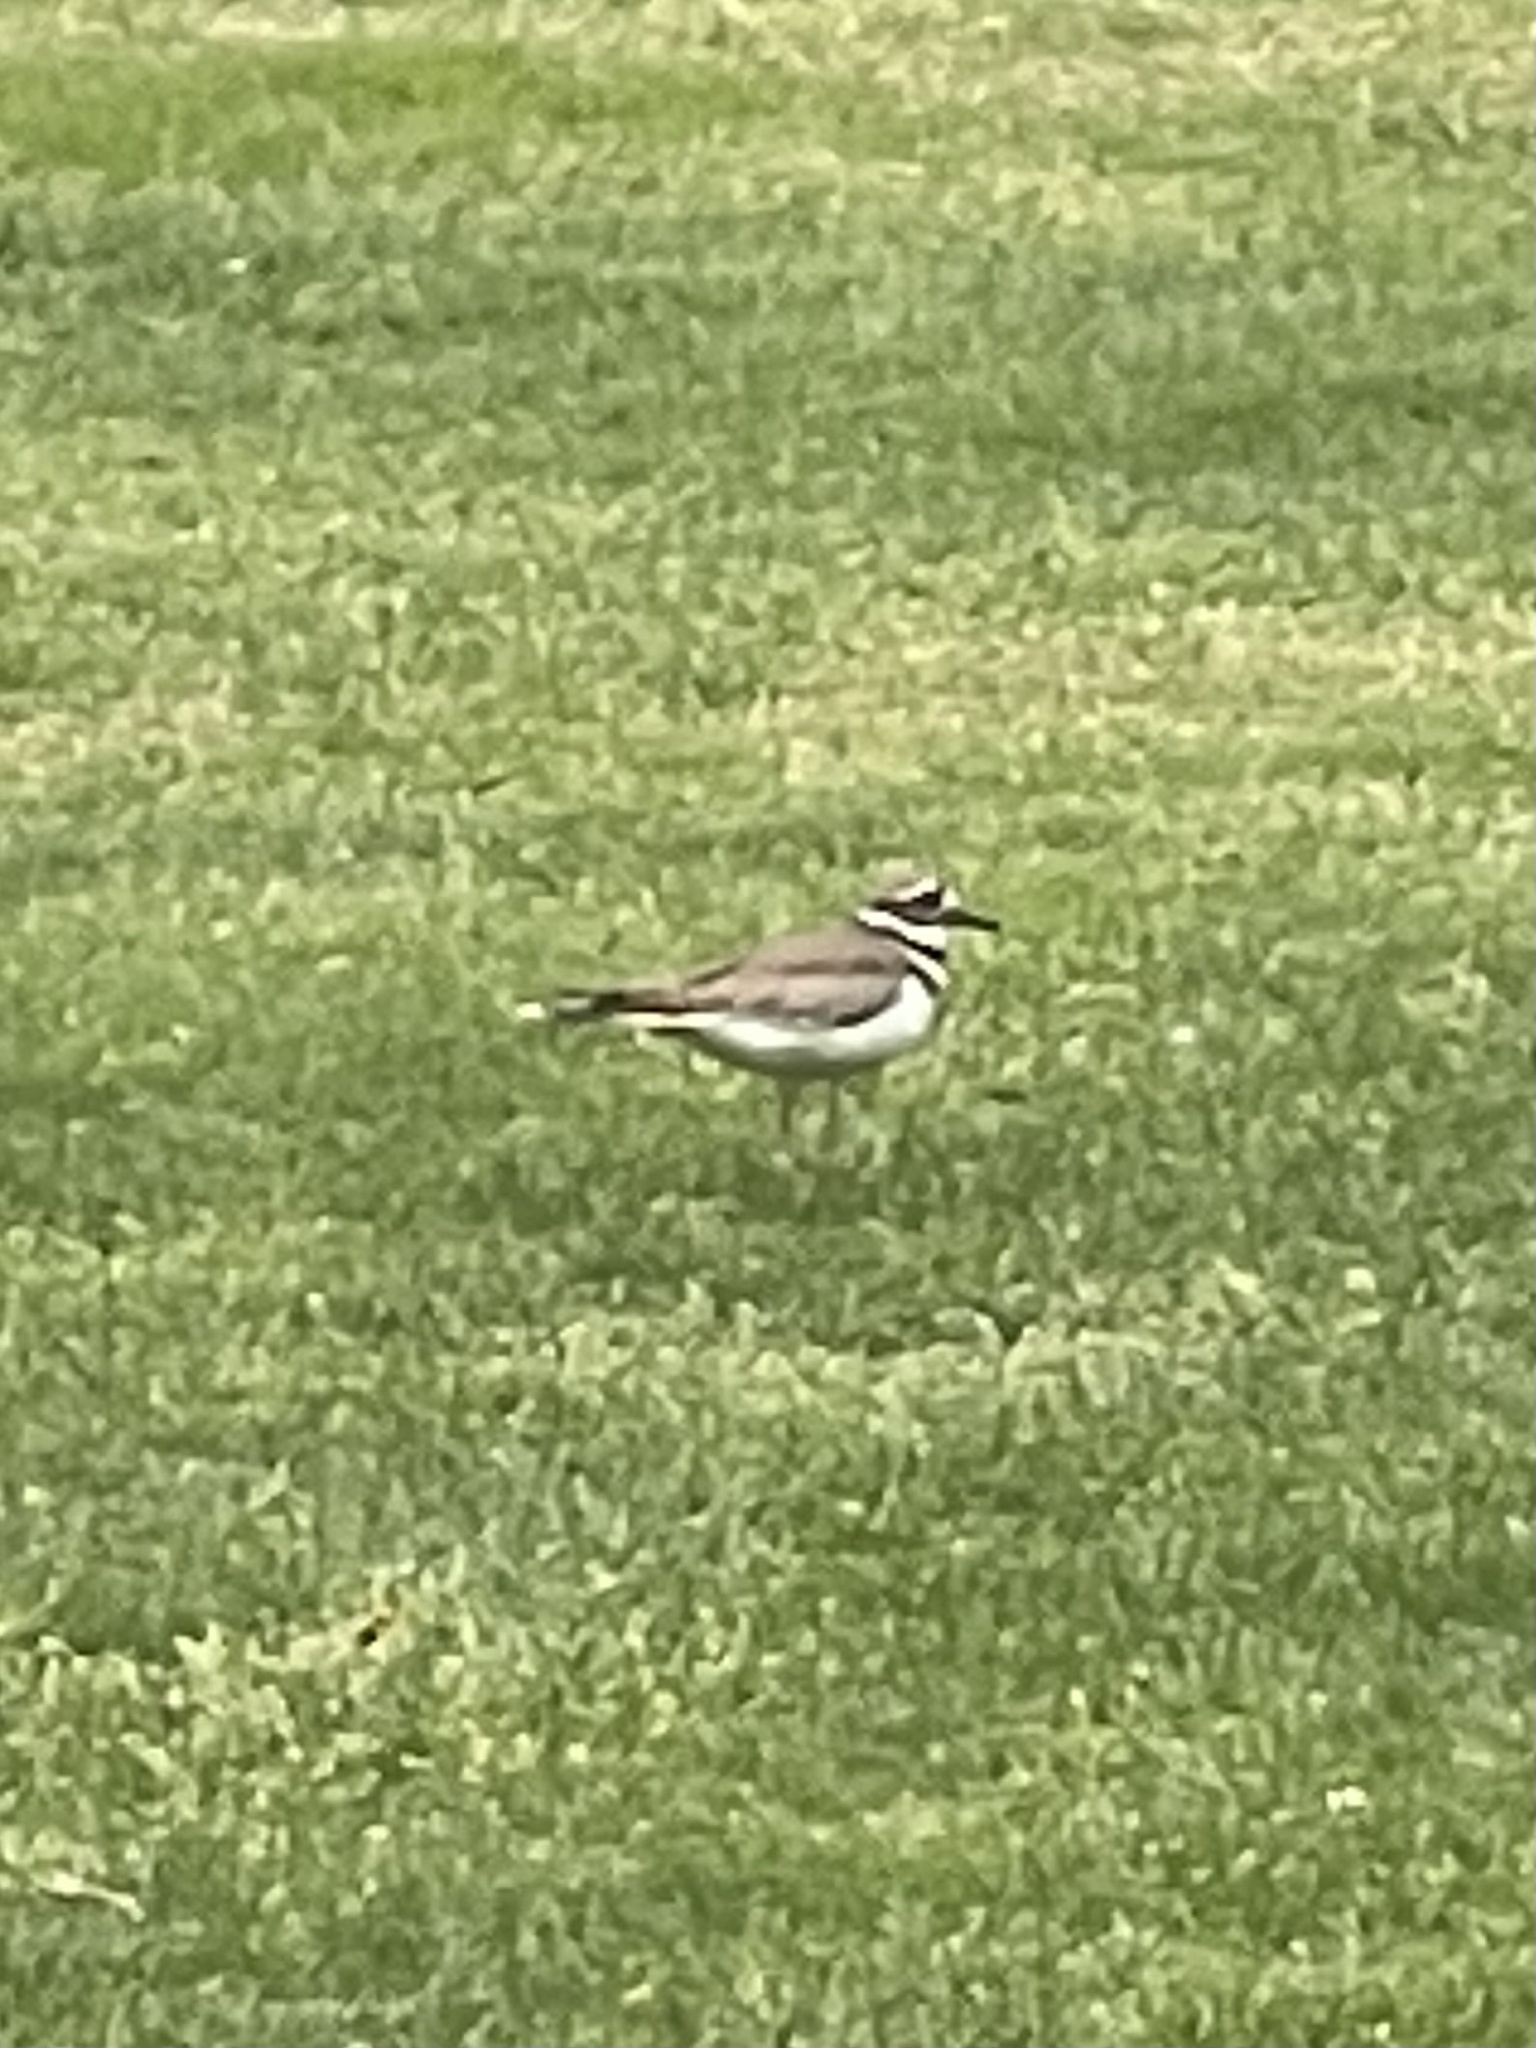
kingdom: Animalia
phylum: Chordata
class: Aves
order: Charadriiformes
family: Charadriidae
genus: Charadrius
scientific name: Charadrius vociferus
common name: Killdeer
